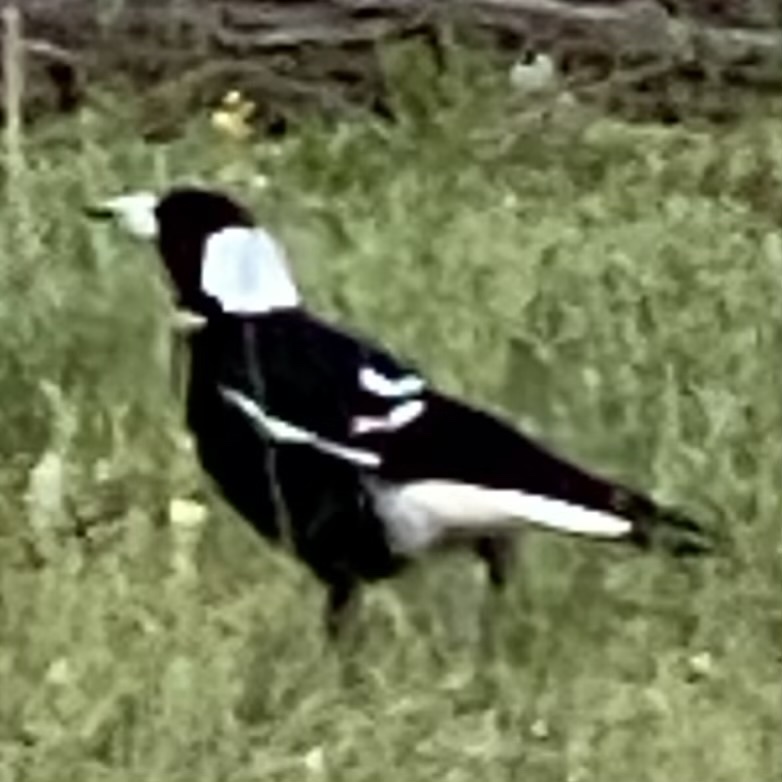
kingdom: Animalia
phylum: Chordata
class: Aves
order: Passeriformes
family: Cracticidae
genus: Gymnorhina
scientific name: Gymnorhina tibicen
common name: Australian magpie
